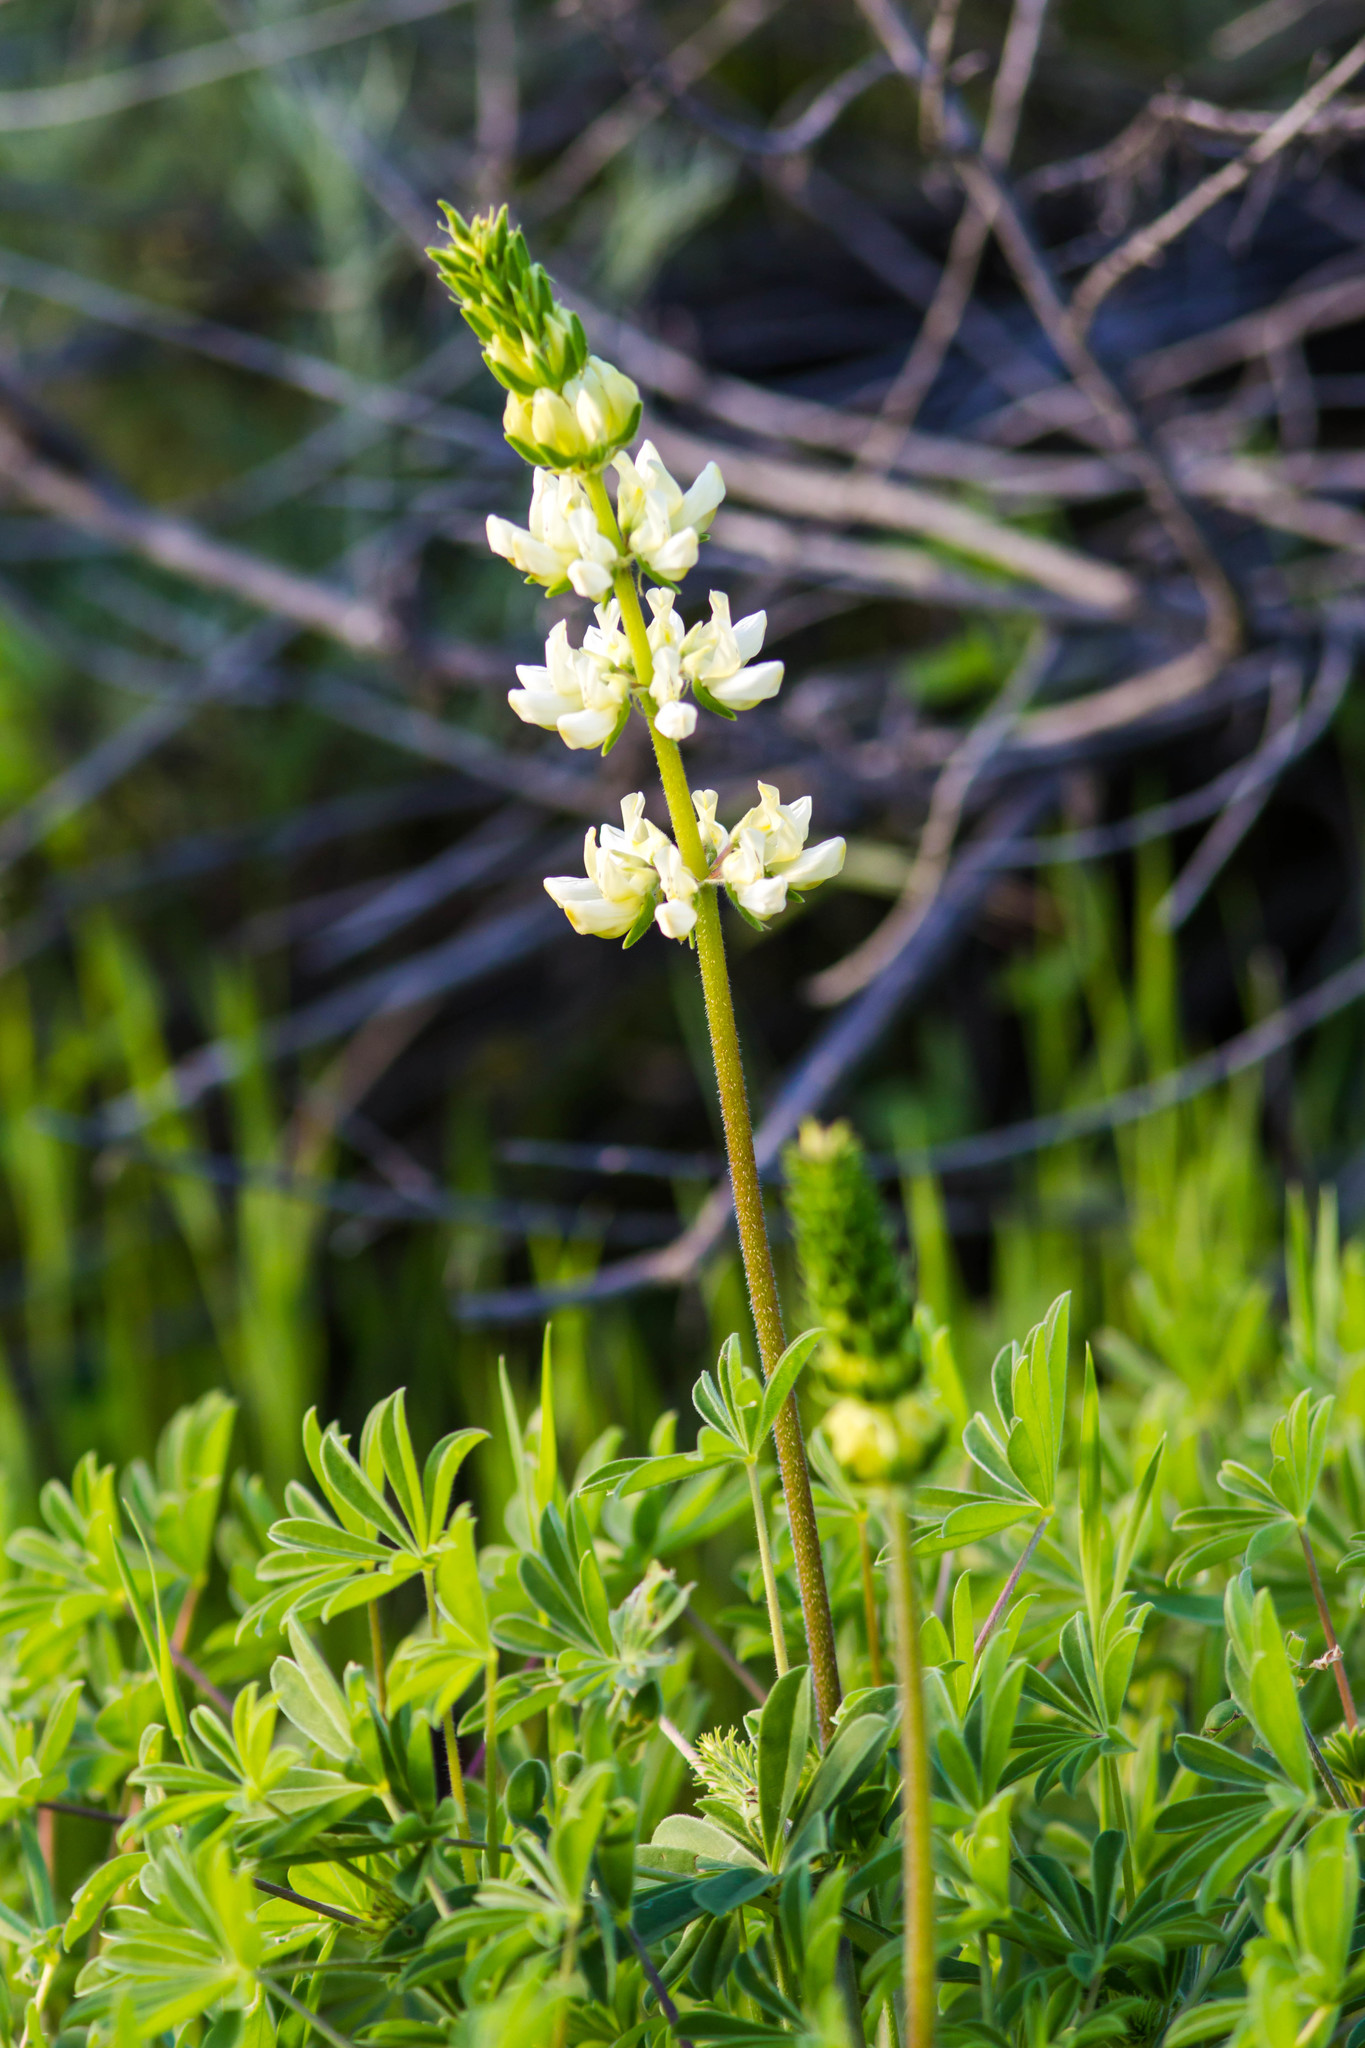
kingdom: Plantae
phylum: Tracheophyta
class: Magnoliopsida
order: Fabales
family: Fabaceae
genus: Lupinus
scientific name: Lupinus microcarpus
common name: Chick lupine
